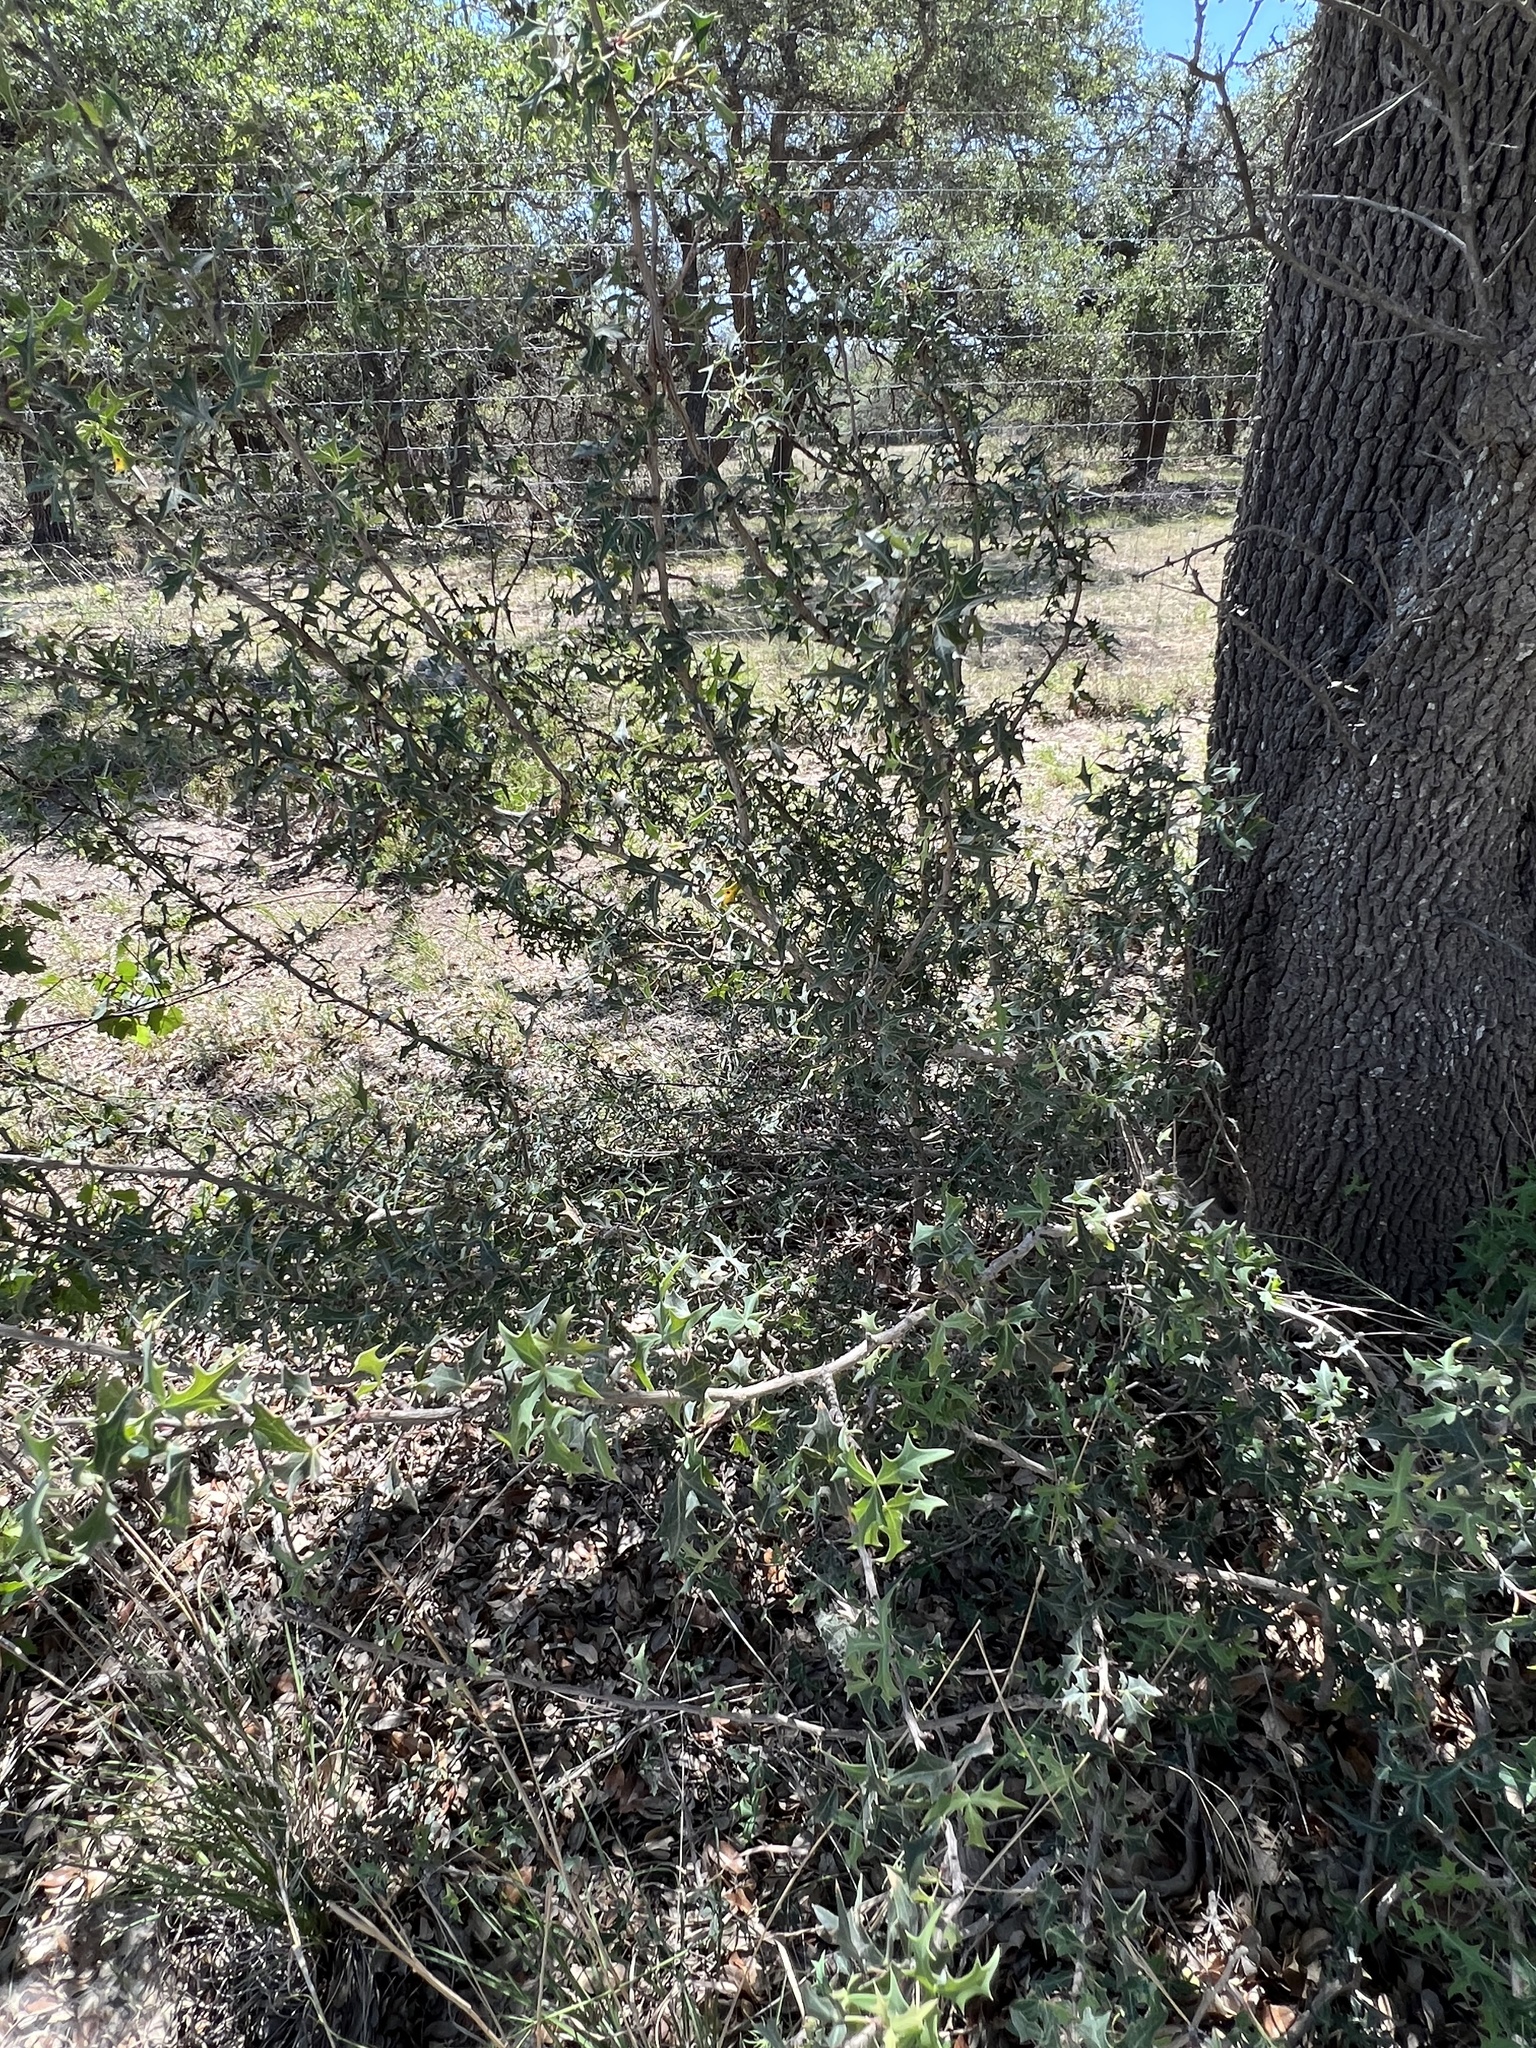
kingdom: Plantae
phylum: Tracheophyta
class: Magnoliopsida
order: Ranunculales
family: Berberidaceae
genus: Alloberberis
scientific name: Alloberberis trifoliolata
